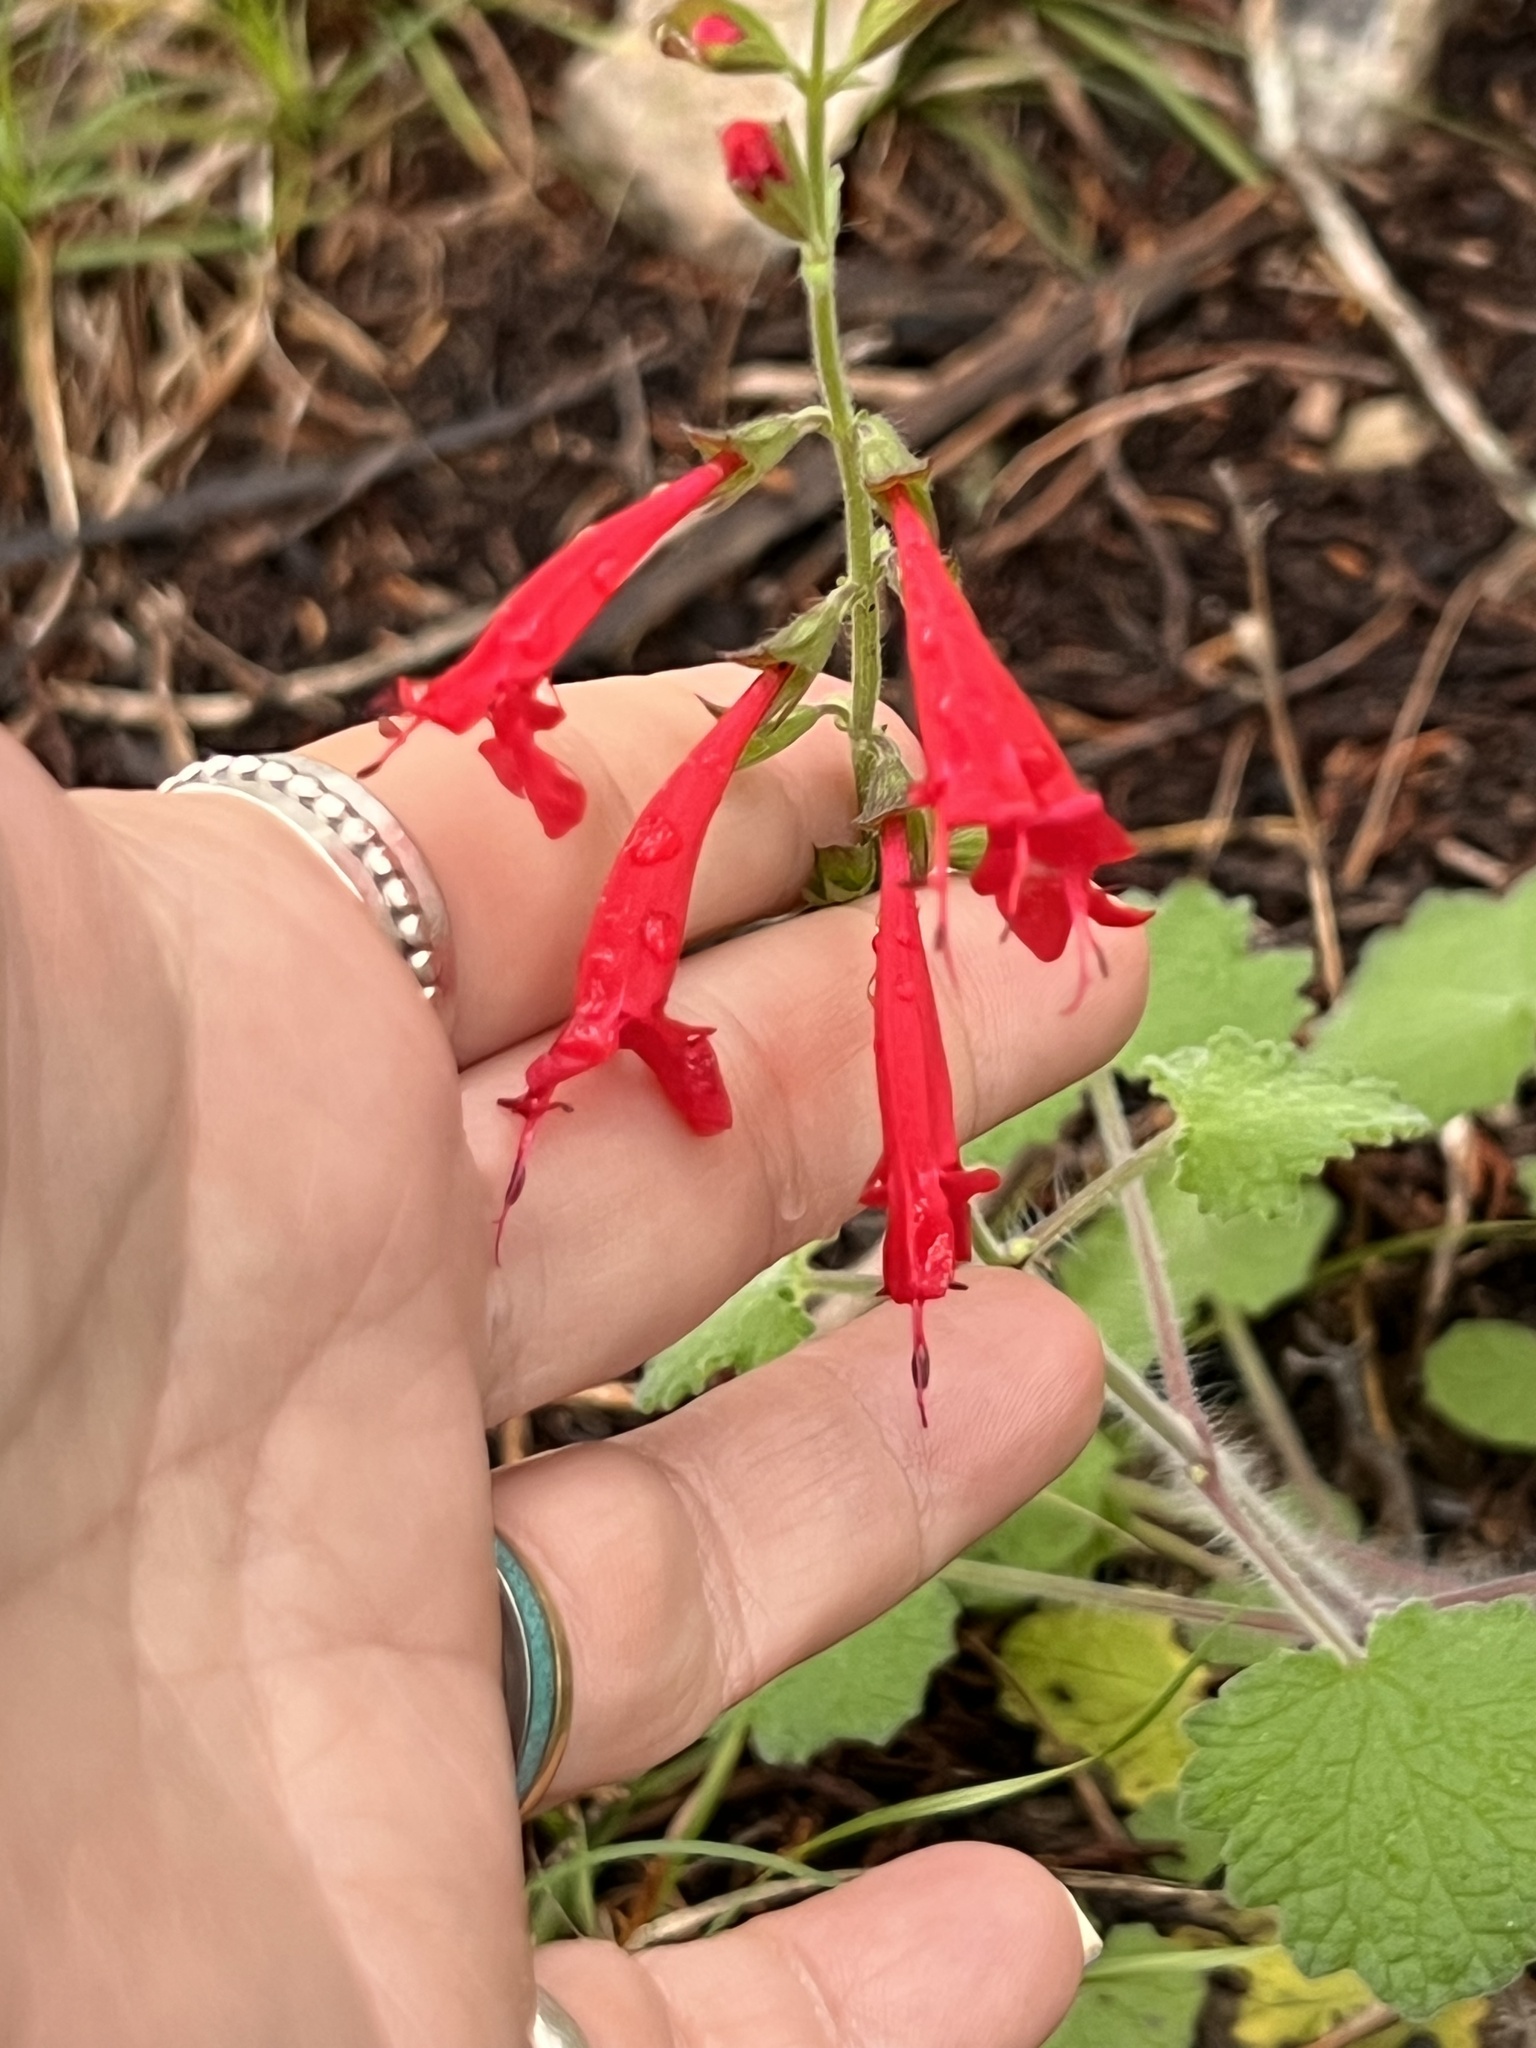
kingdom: Plantae
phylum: Tracheophyta
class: Magnoliopsida
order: Lamiales
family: Lamiaceae
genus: Salvia
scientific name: Salvia roemeriana
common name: Cedar sage
